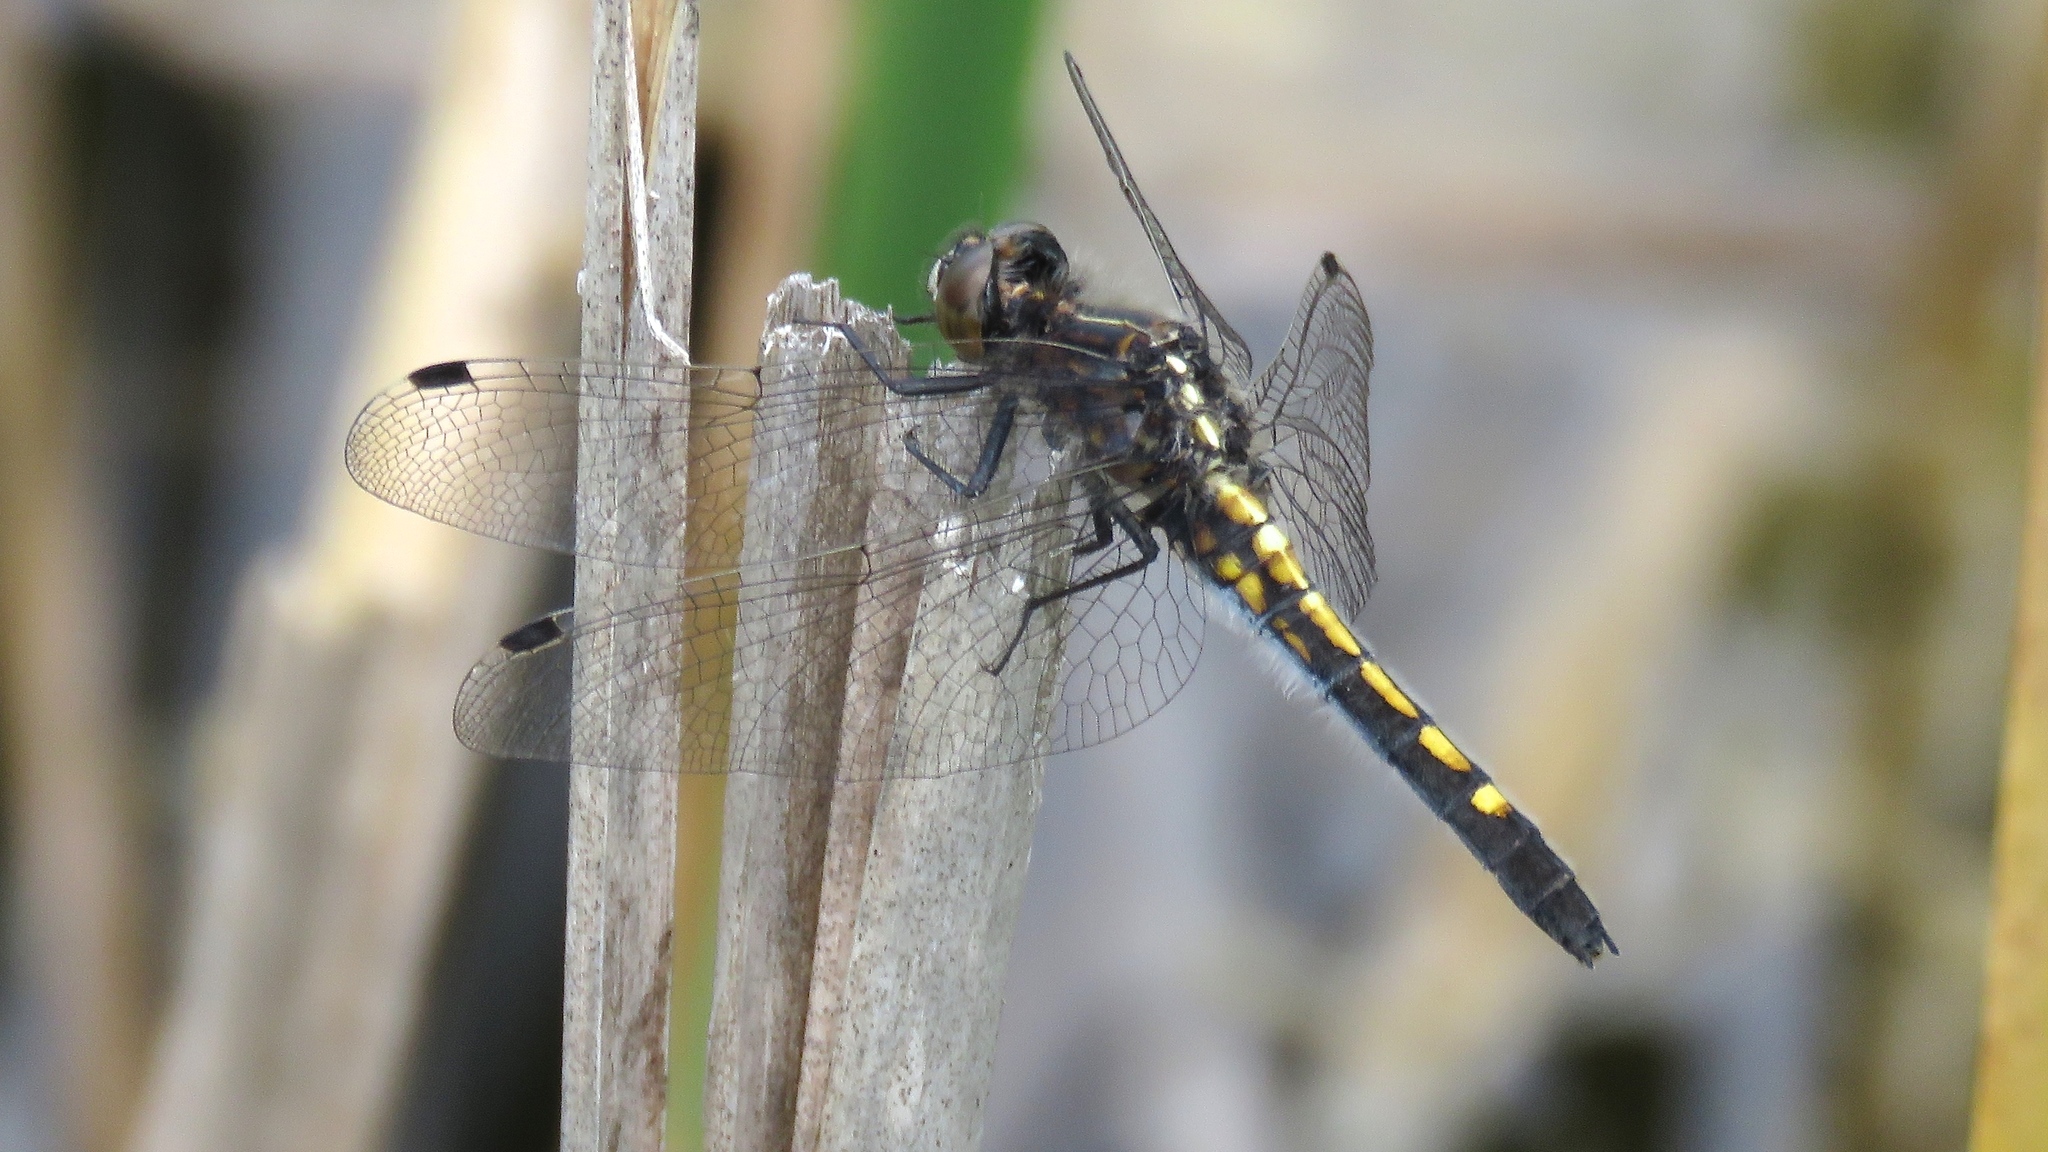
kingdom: Animalia
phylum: Arthropoda
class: Insecta
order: Odonata
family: Libellulidae
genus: Leucorrhinia
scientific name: Leucorrhinia intacta
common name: Dot-tailed whiteface
